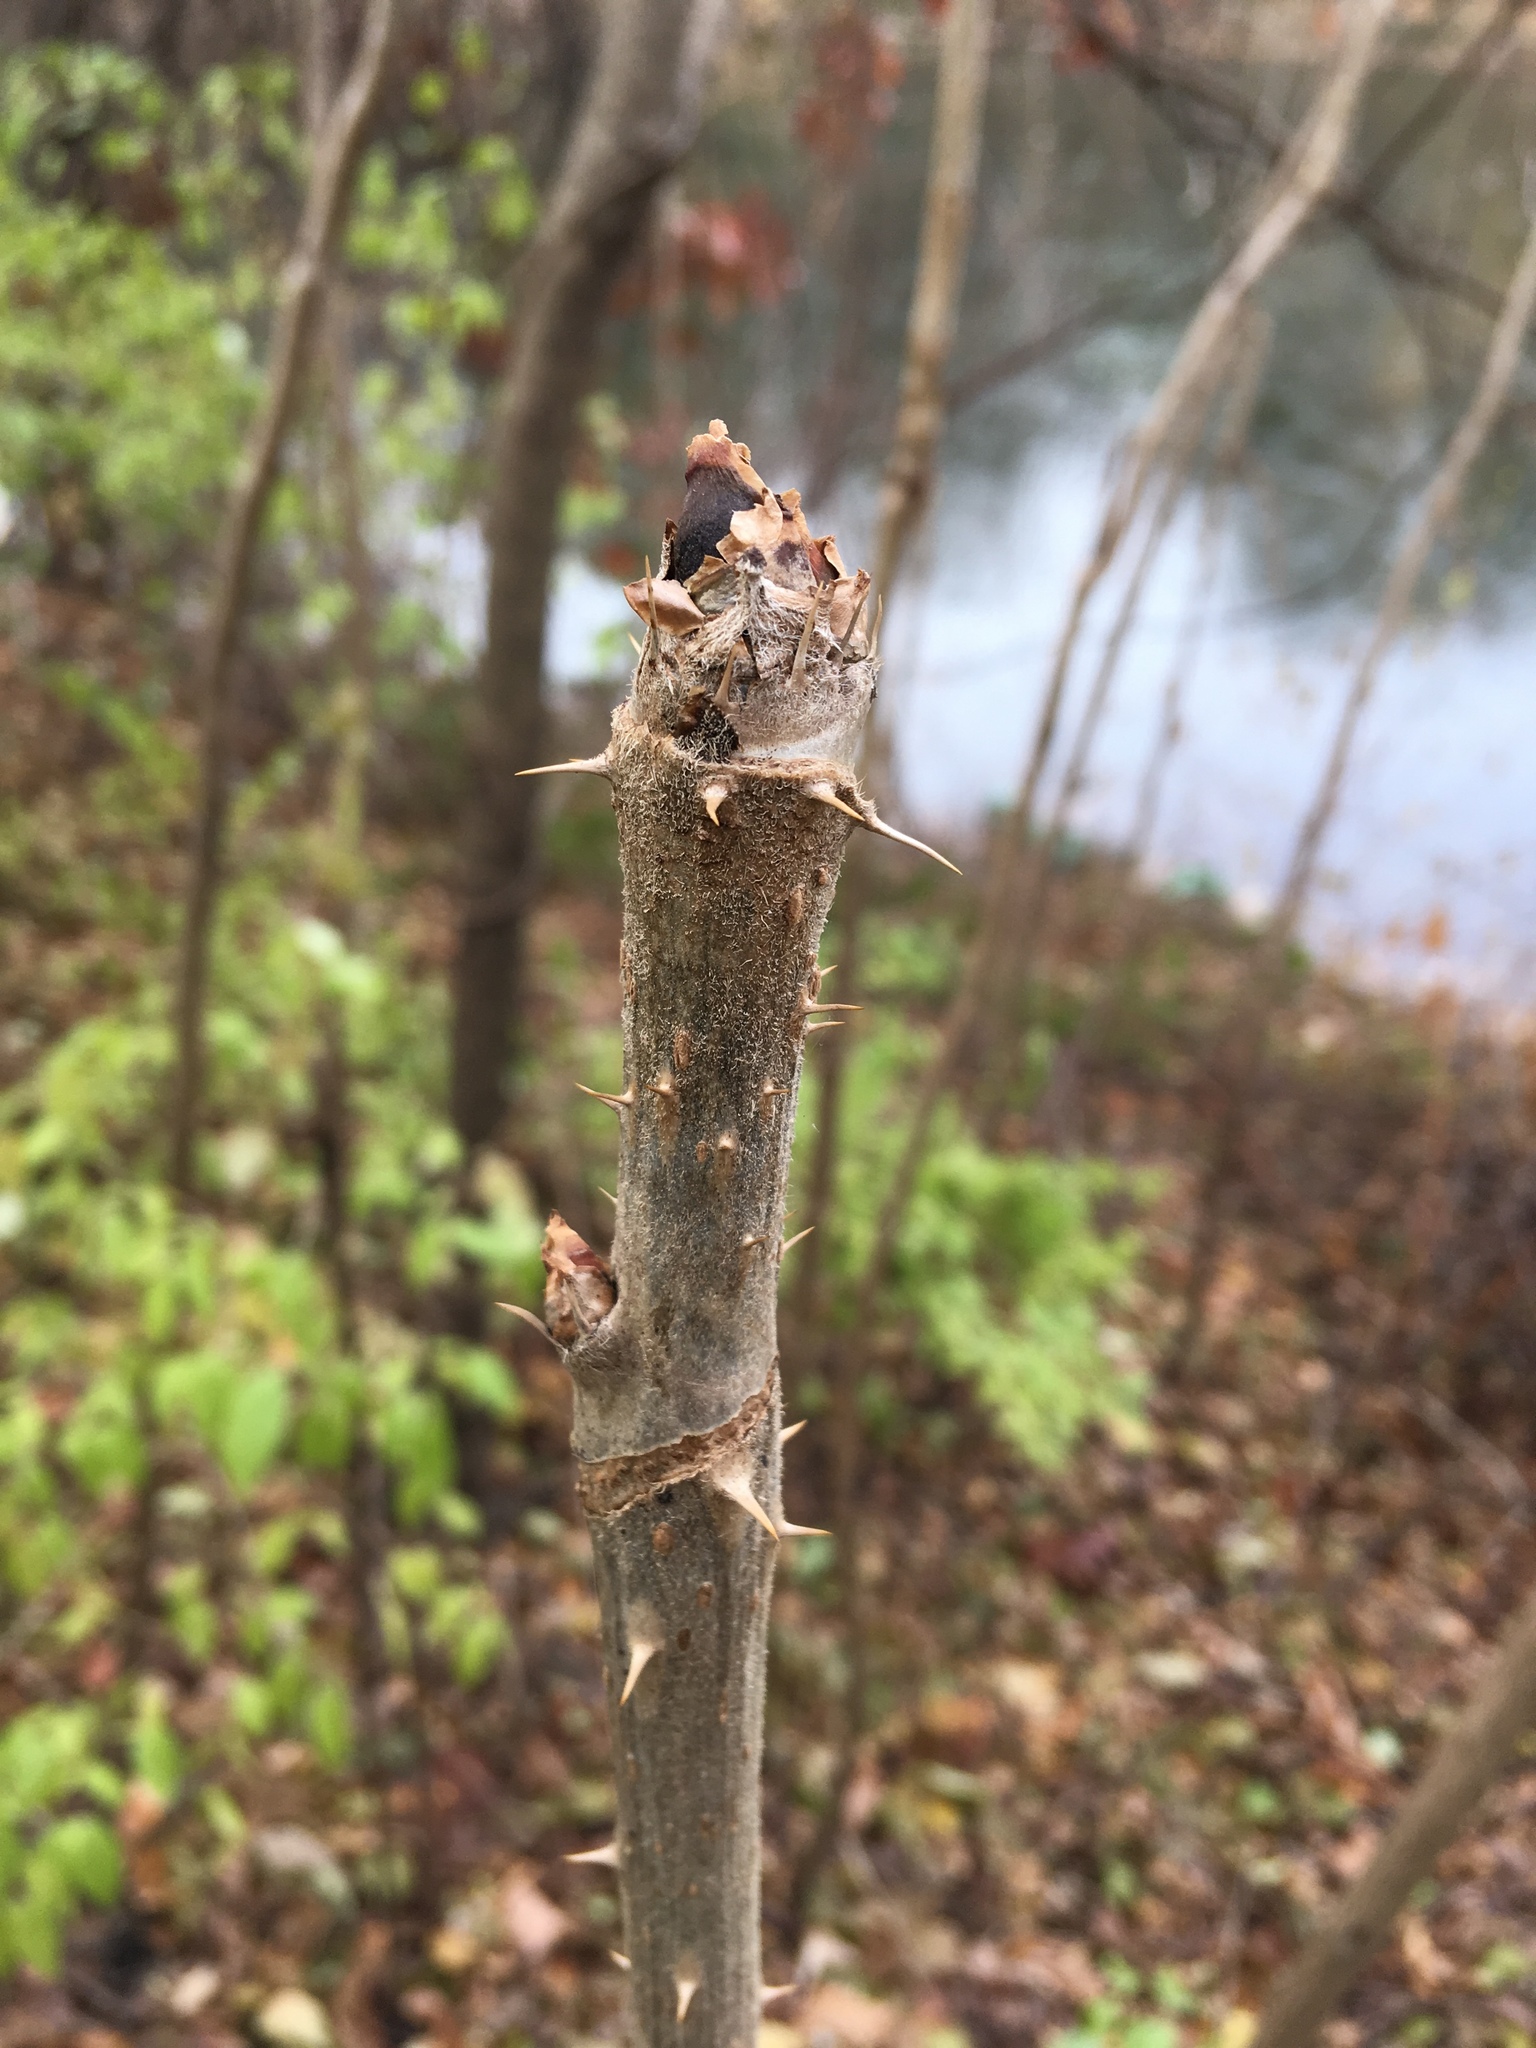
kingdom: Plantae
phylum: Tracheophyta
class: Magnoliopsida
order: Apiales
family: Araliaceae
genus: Aralia
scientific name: Aralia elata
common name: Japanese angelica-tree
